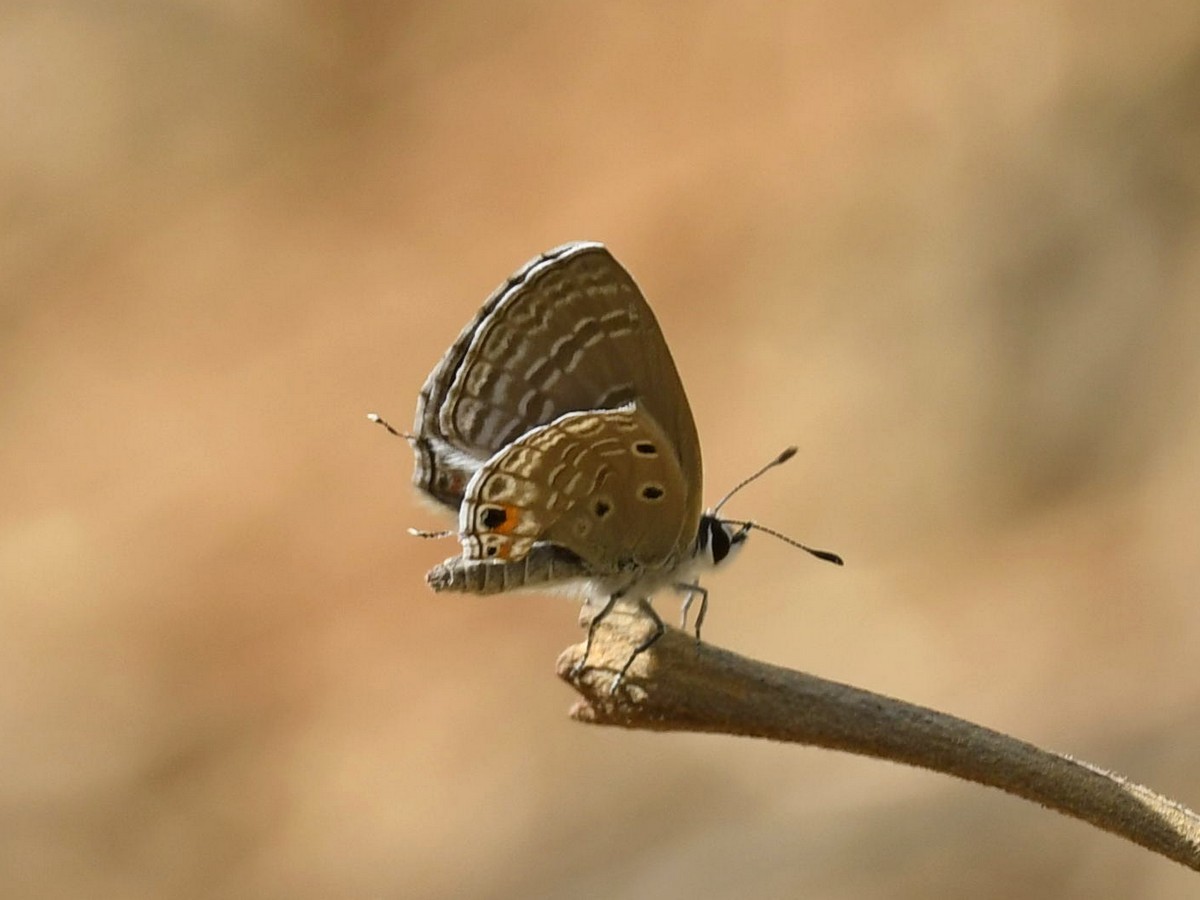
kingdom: Animalia
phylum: Arthropoda
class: Insecta
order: Lepidoptera
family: Lycaenidae
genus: Luthrodes
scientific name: Luthrodes pandava
